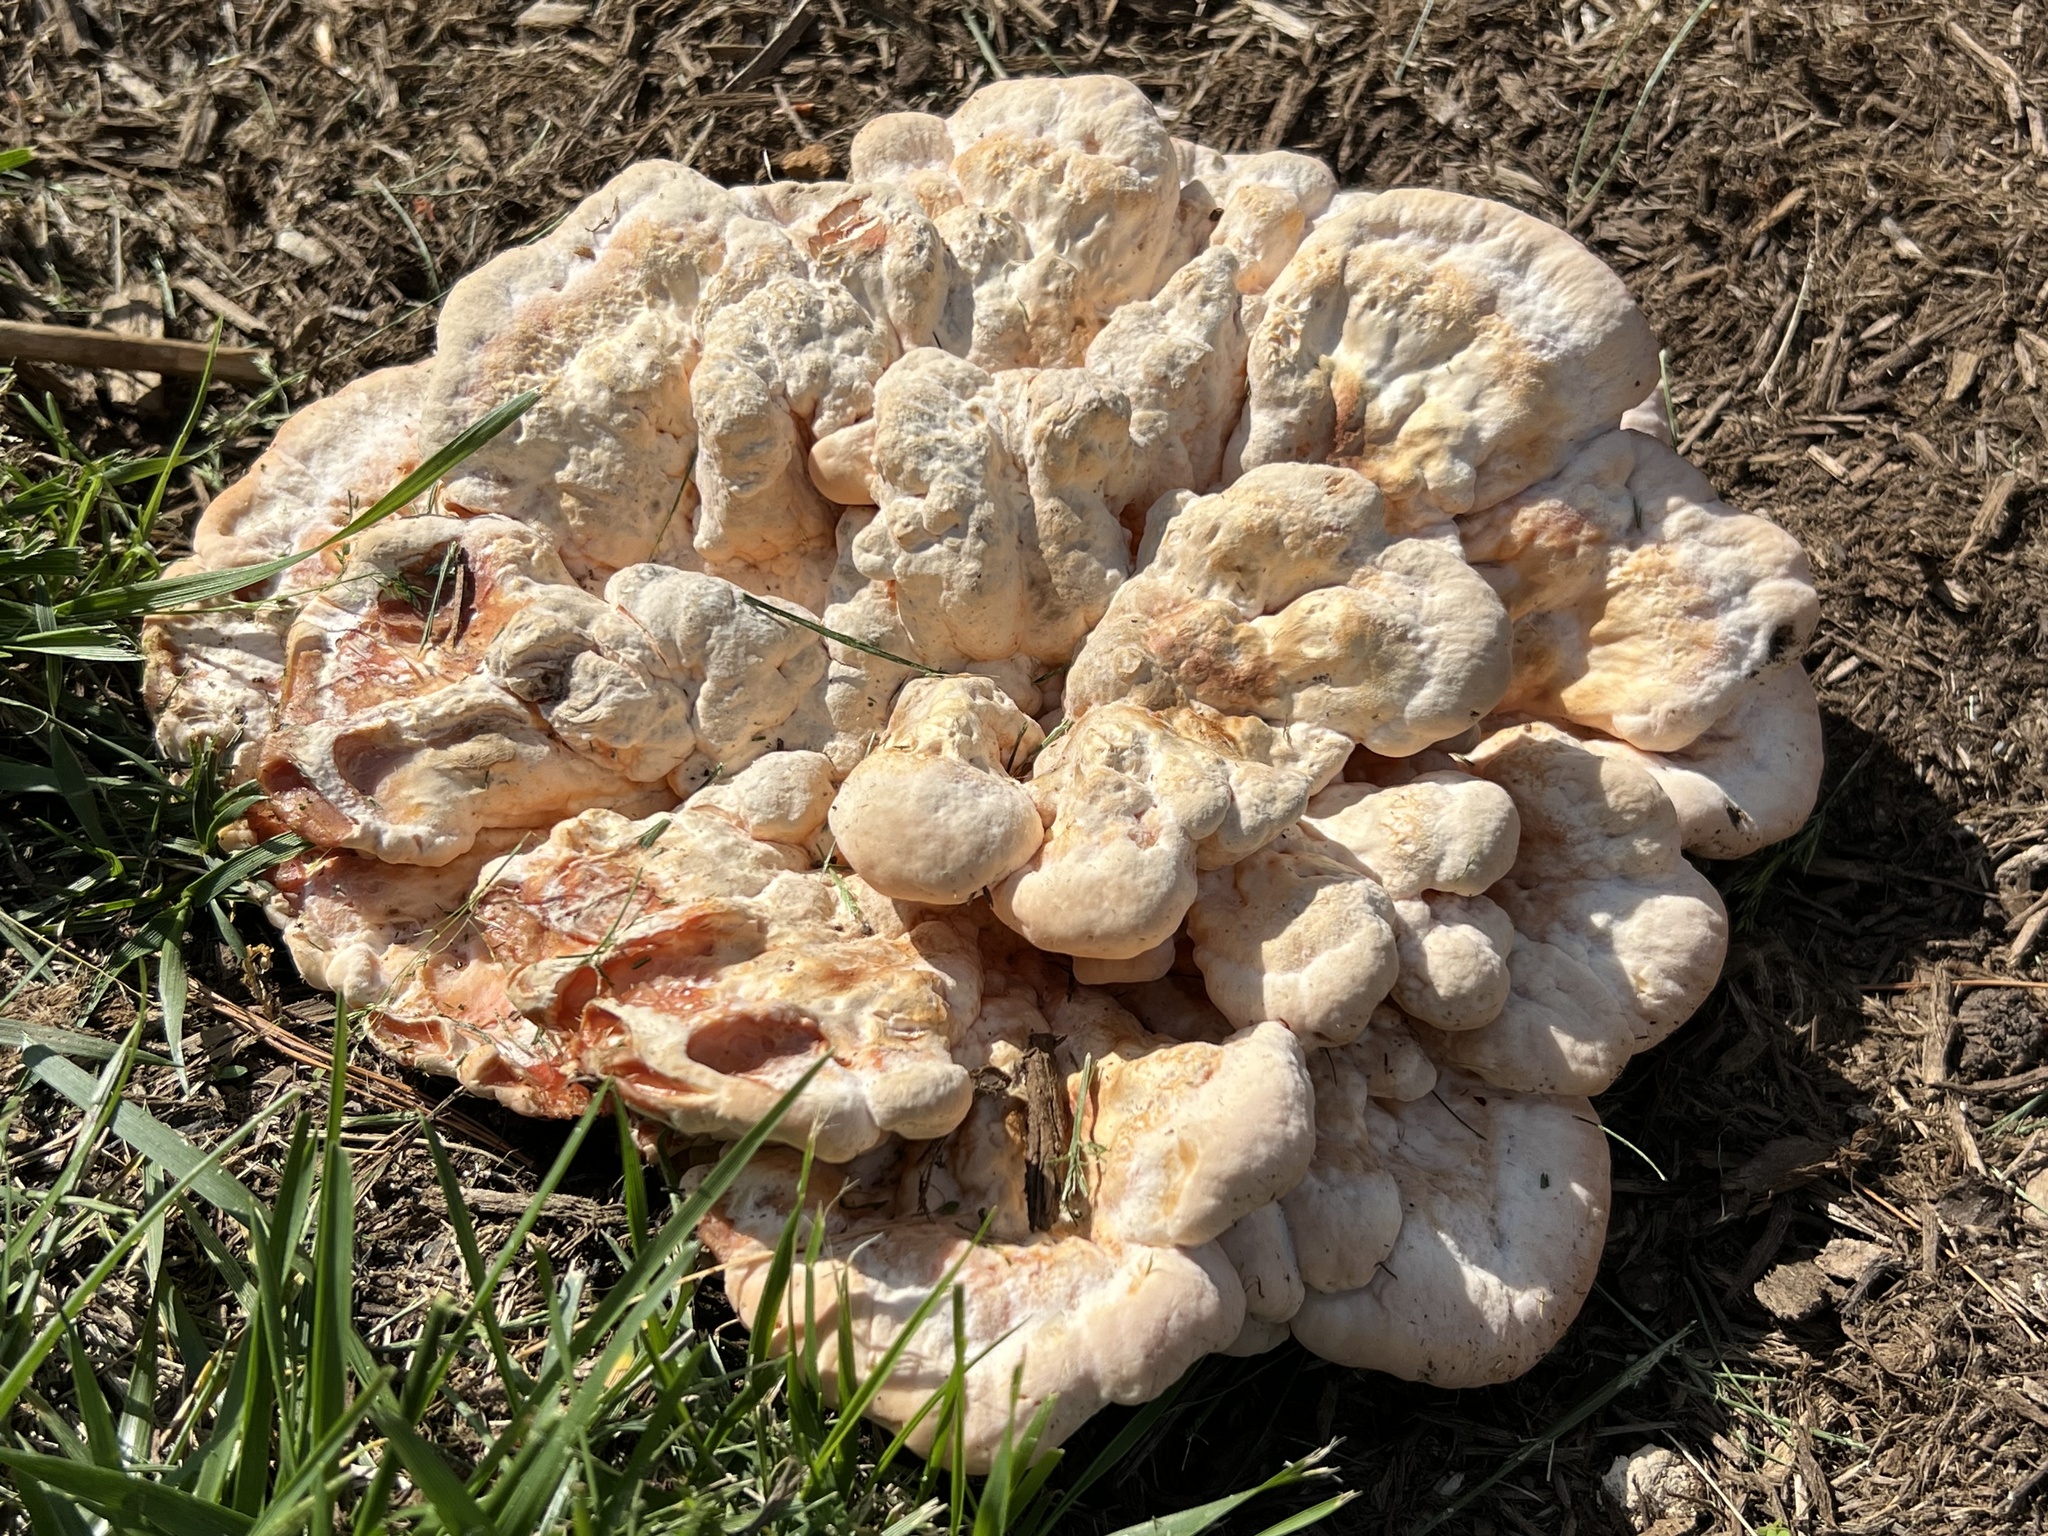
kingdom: Fungi
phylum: Basidiomycota
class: Agaricomycetes
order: Polyporales
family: Laetiporaceae
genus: Laetiporus
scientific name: Laetiporus sulphureus
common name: Chicken of the woods
